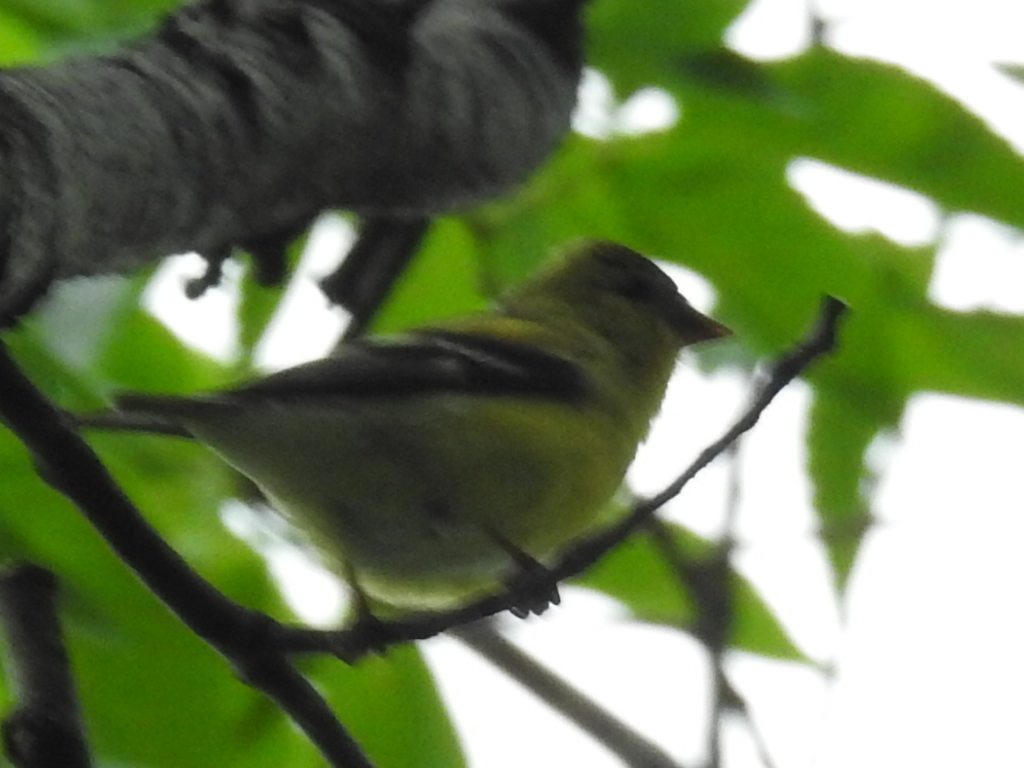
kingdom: Animalia
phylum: Chordata
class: Aves
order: Passeriformes
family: Fringillidae
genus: Spinus
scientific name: Spinus tristis
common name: American goldfinch
